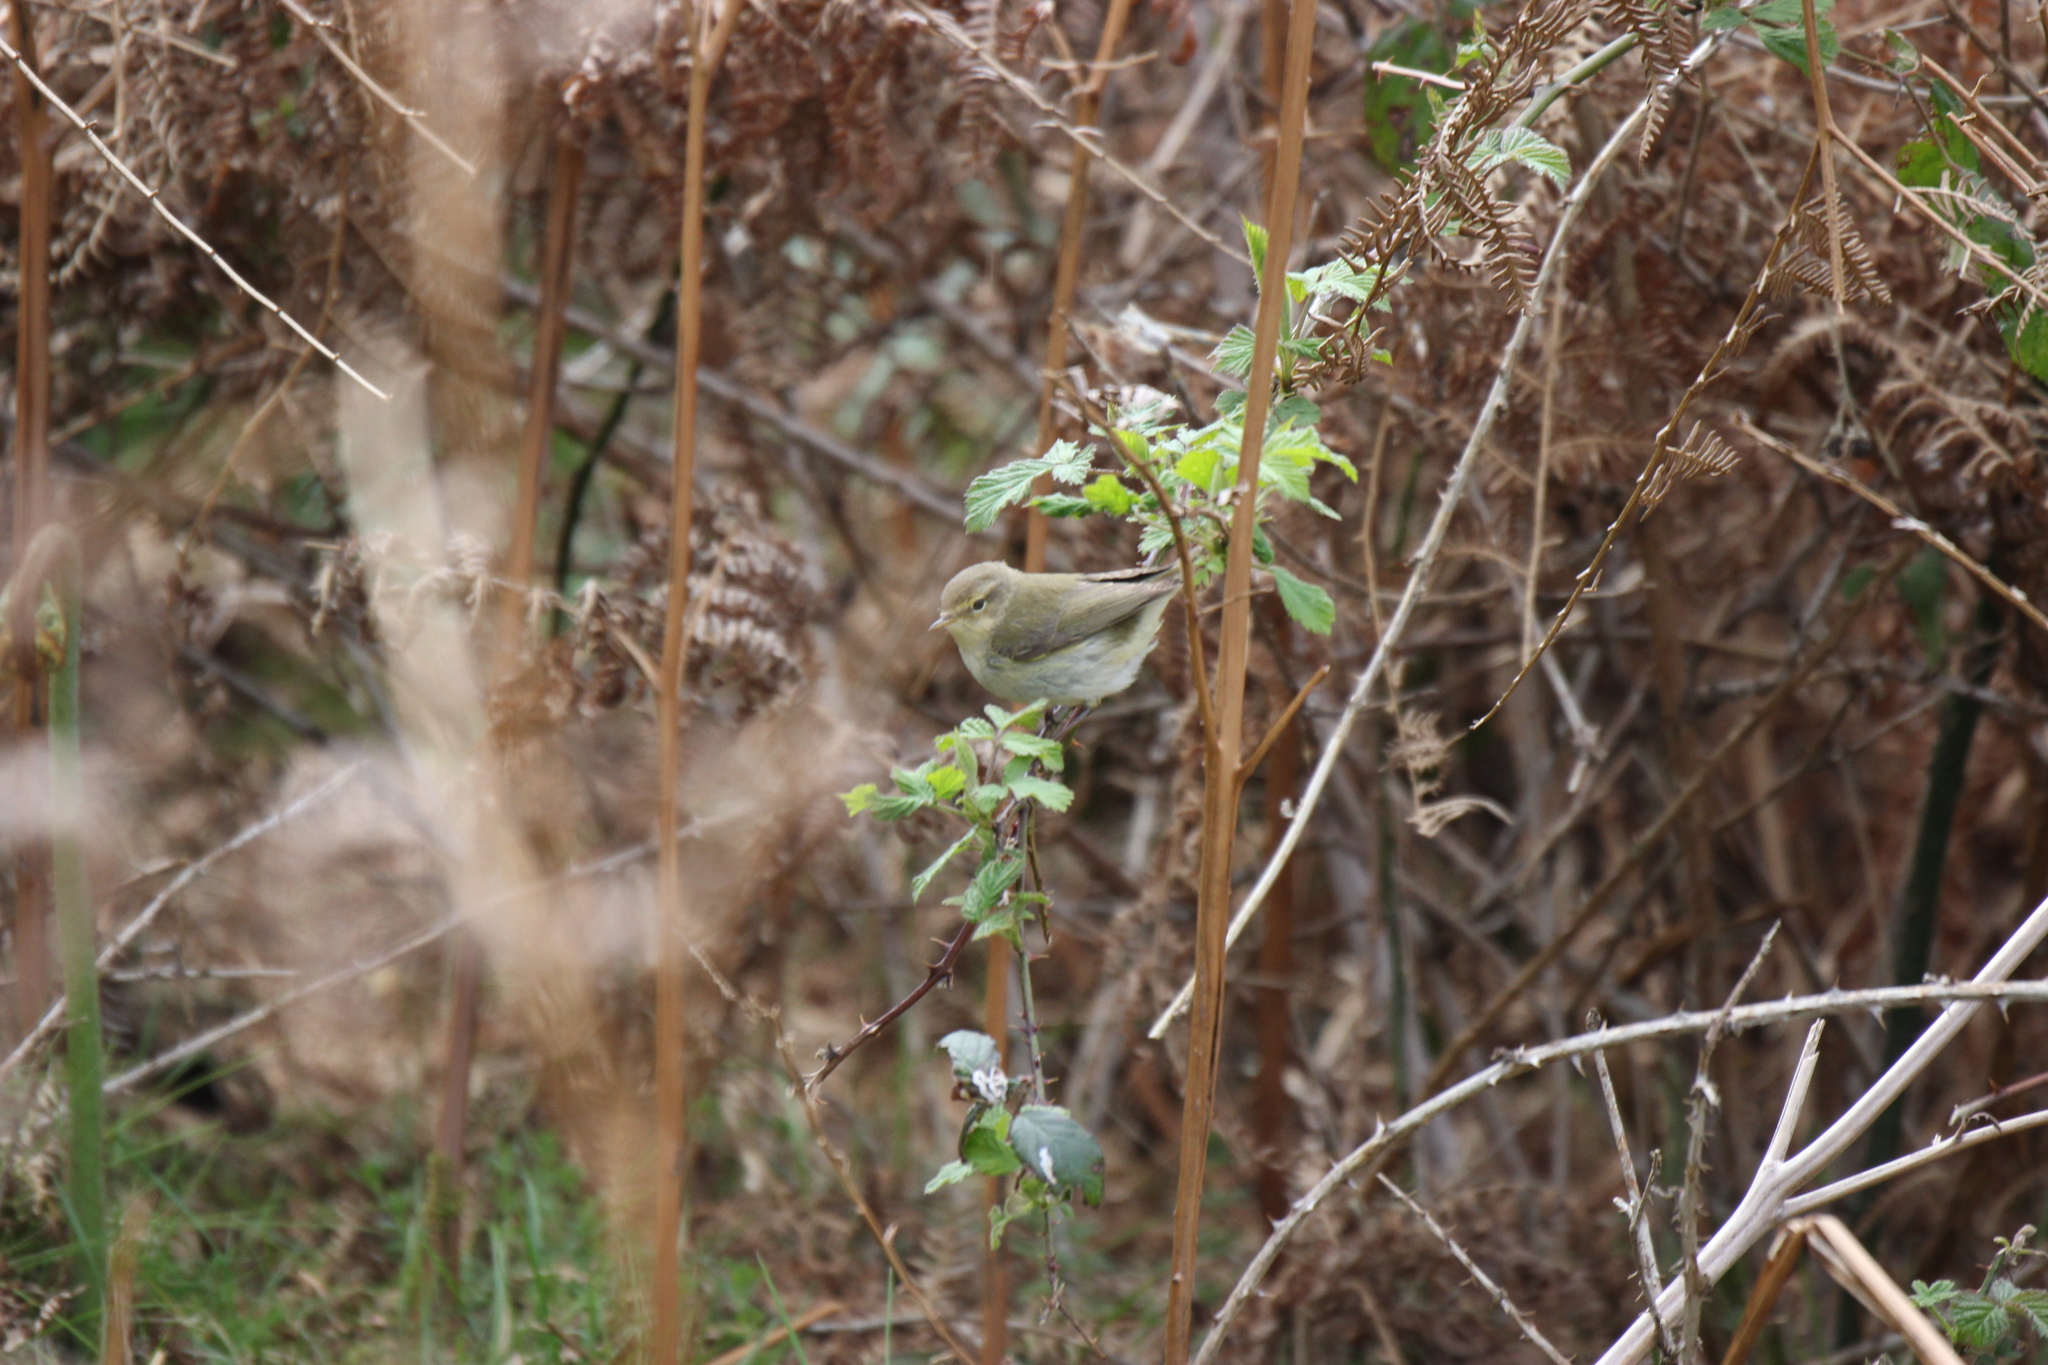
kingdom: Animalia
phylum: Chordata
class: Aves
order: Passeriformes
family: Phylloscopidae
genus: Phylloscopus
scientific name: Phylloscopus collybita
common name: Common chiffchaff
